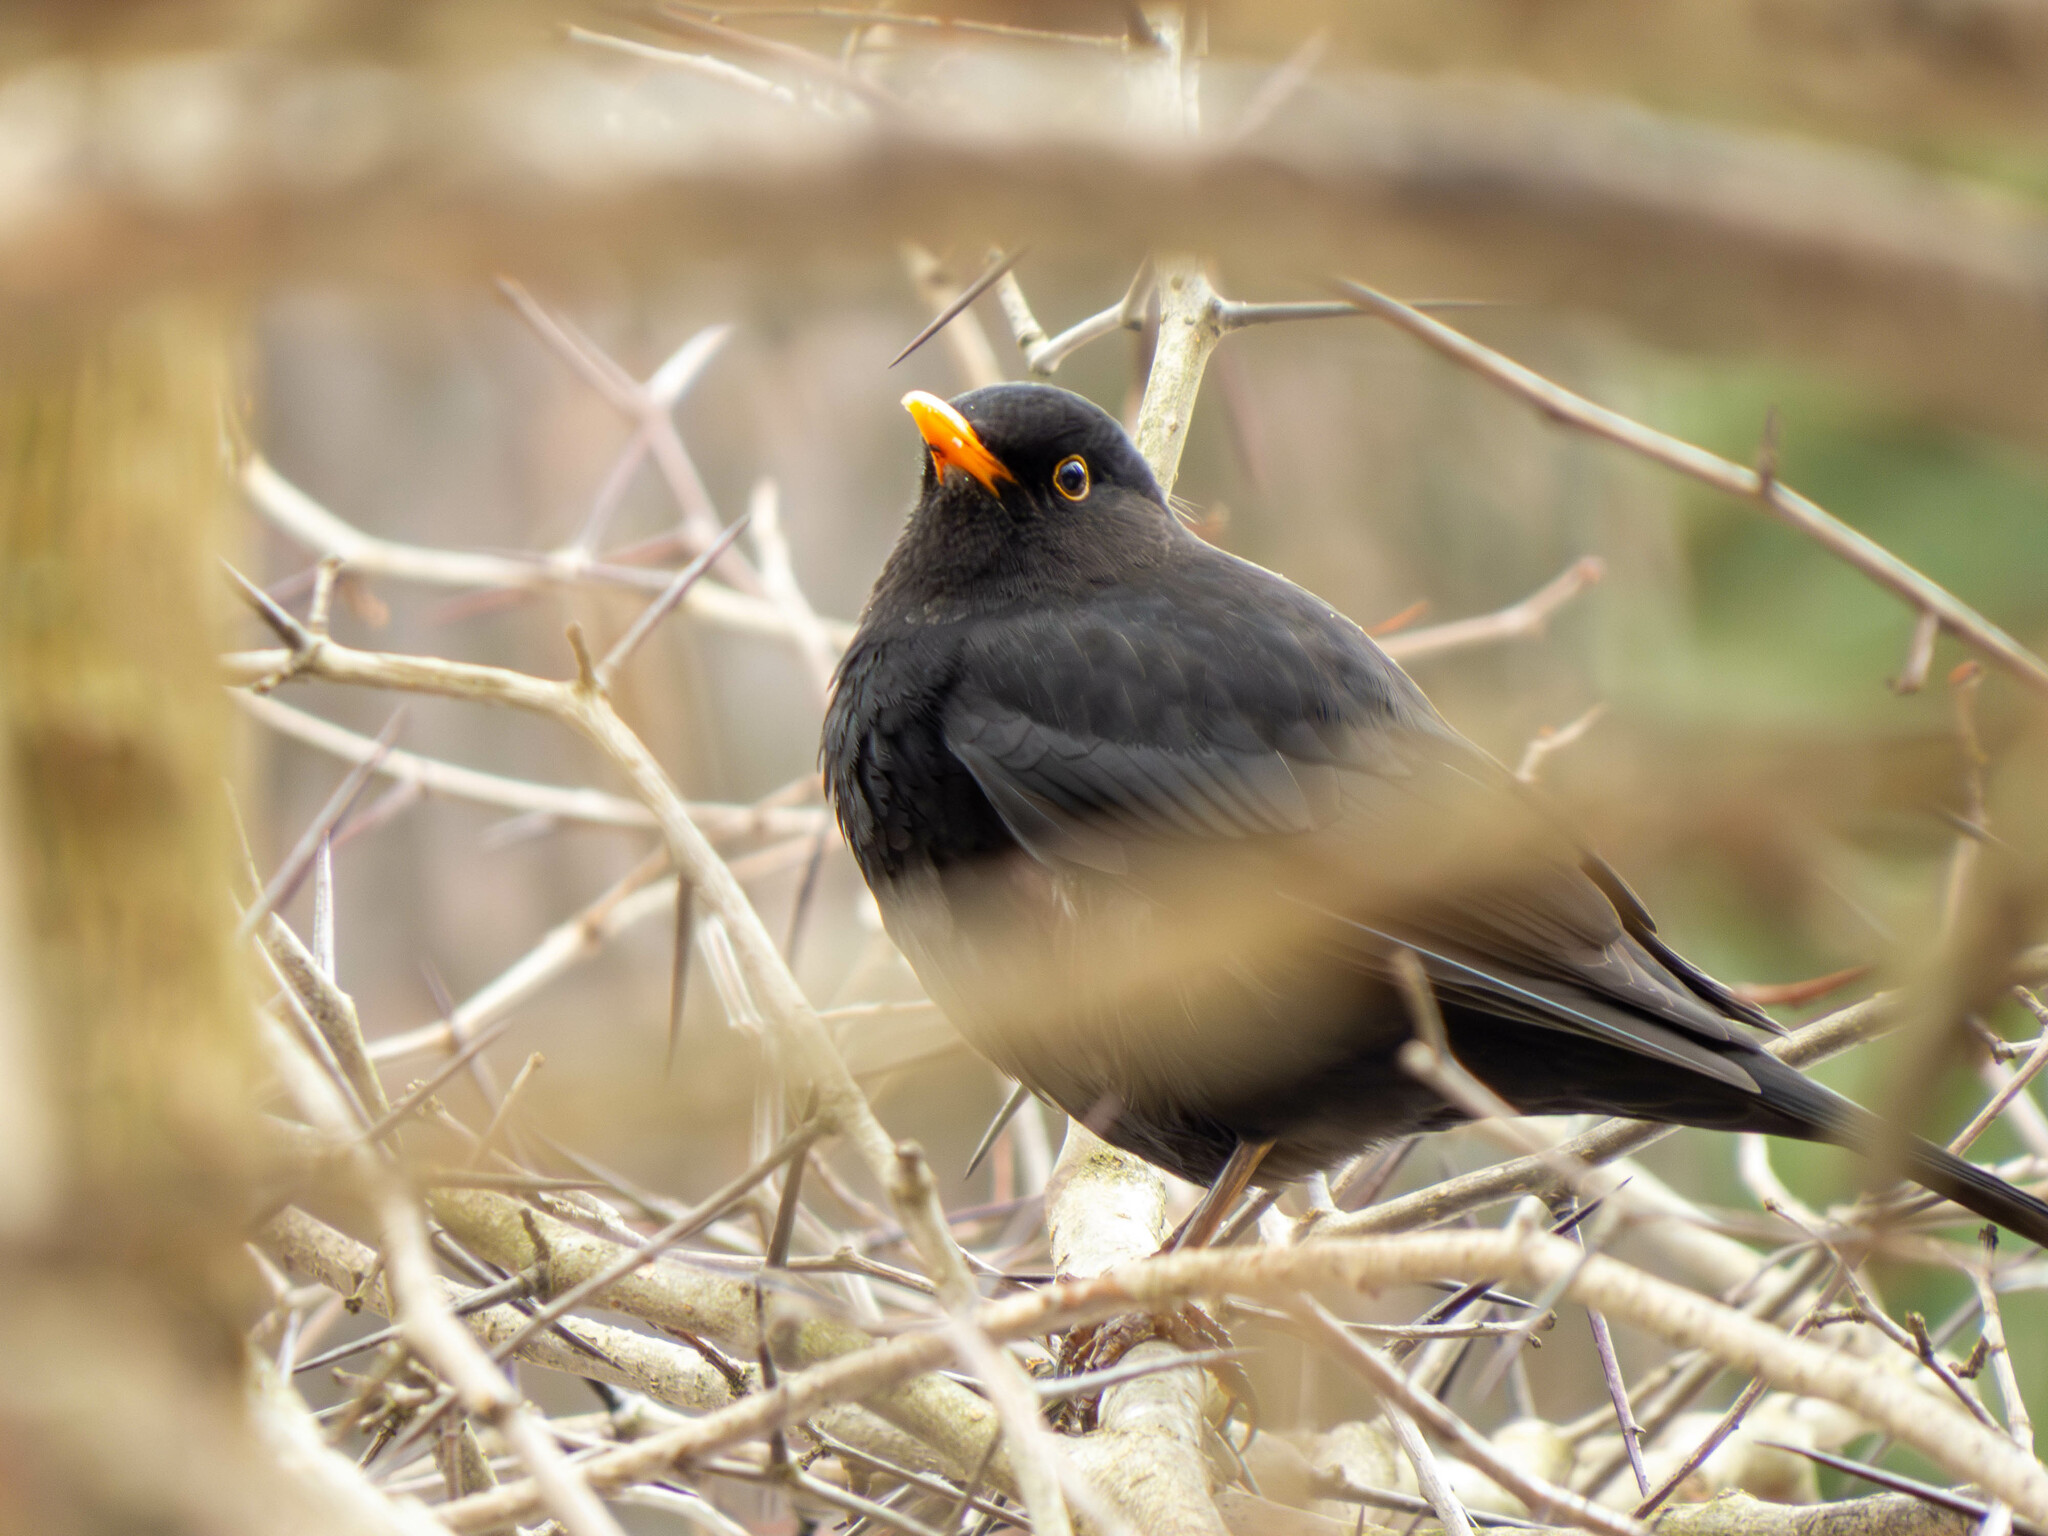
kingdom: Animalia
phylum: Chordata
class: Aves
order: Passeriformes
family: Turdidae
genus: Turdus
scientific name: Turdus merula
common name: Common blackbird
